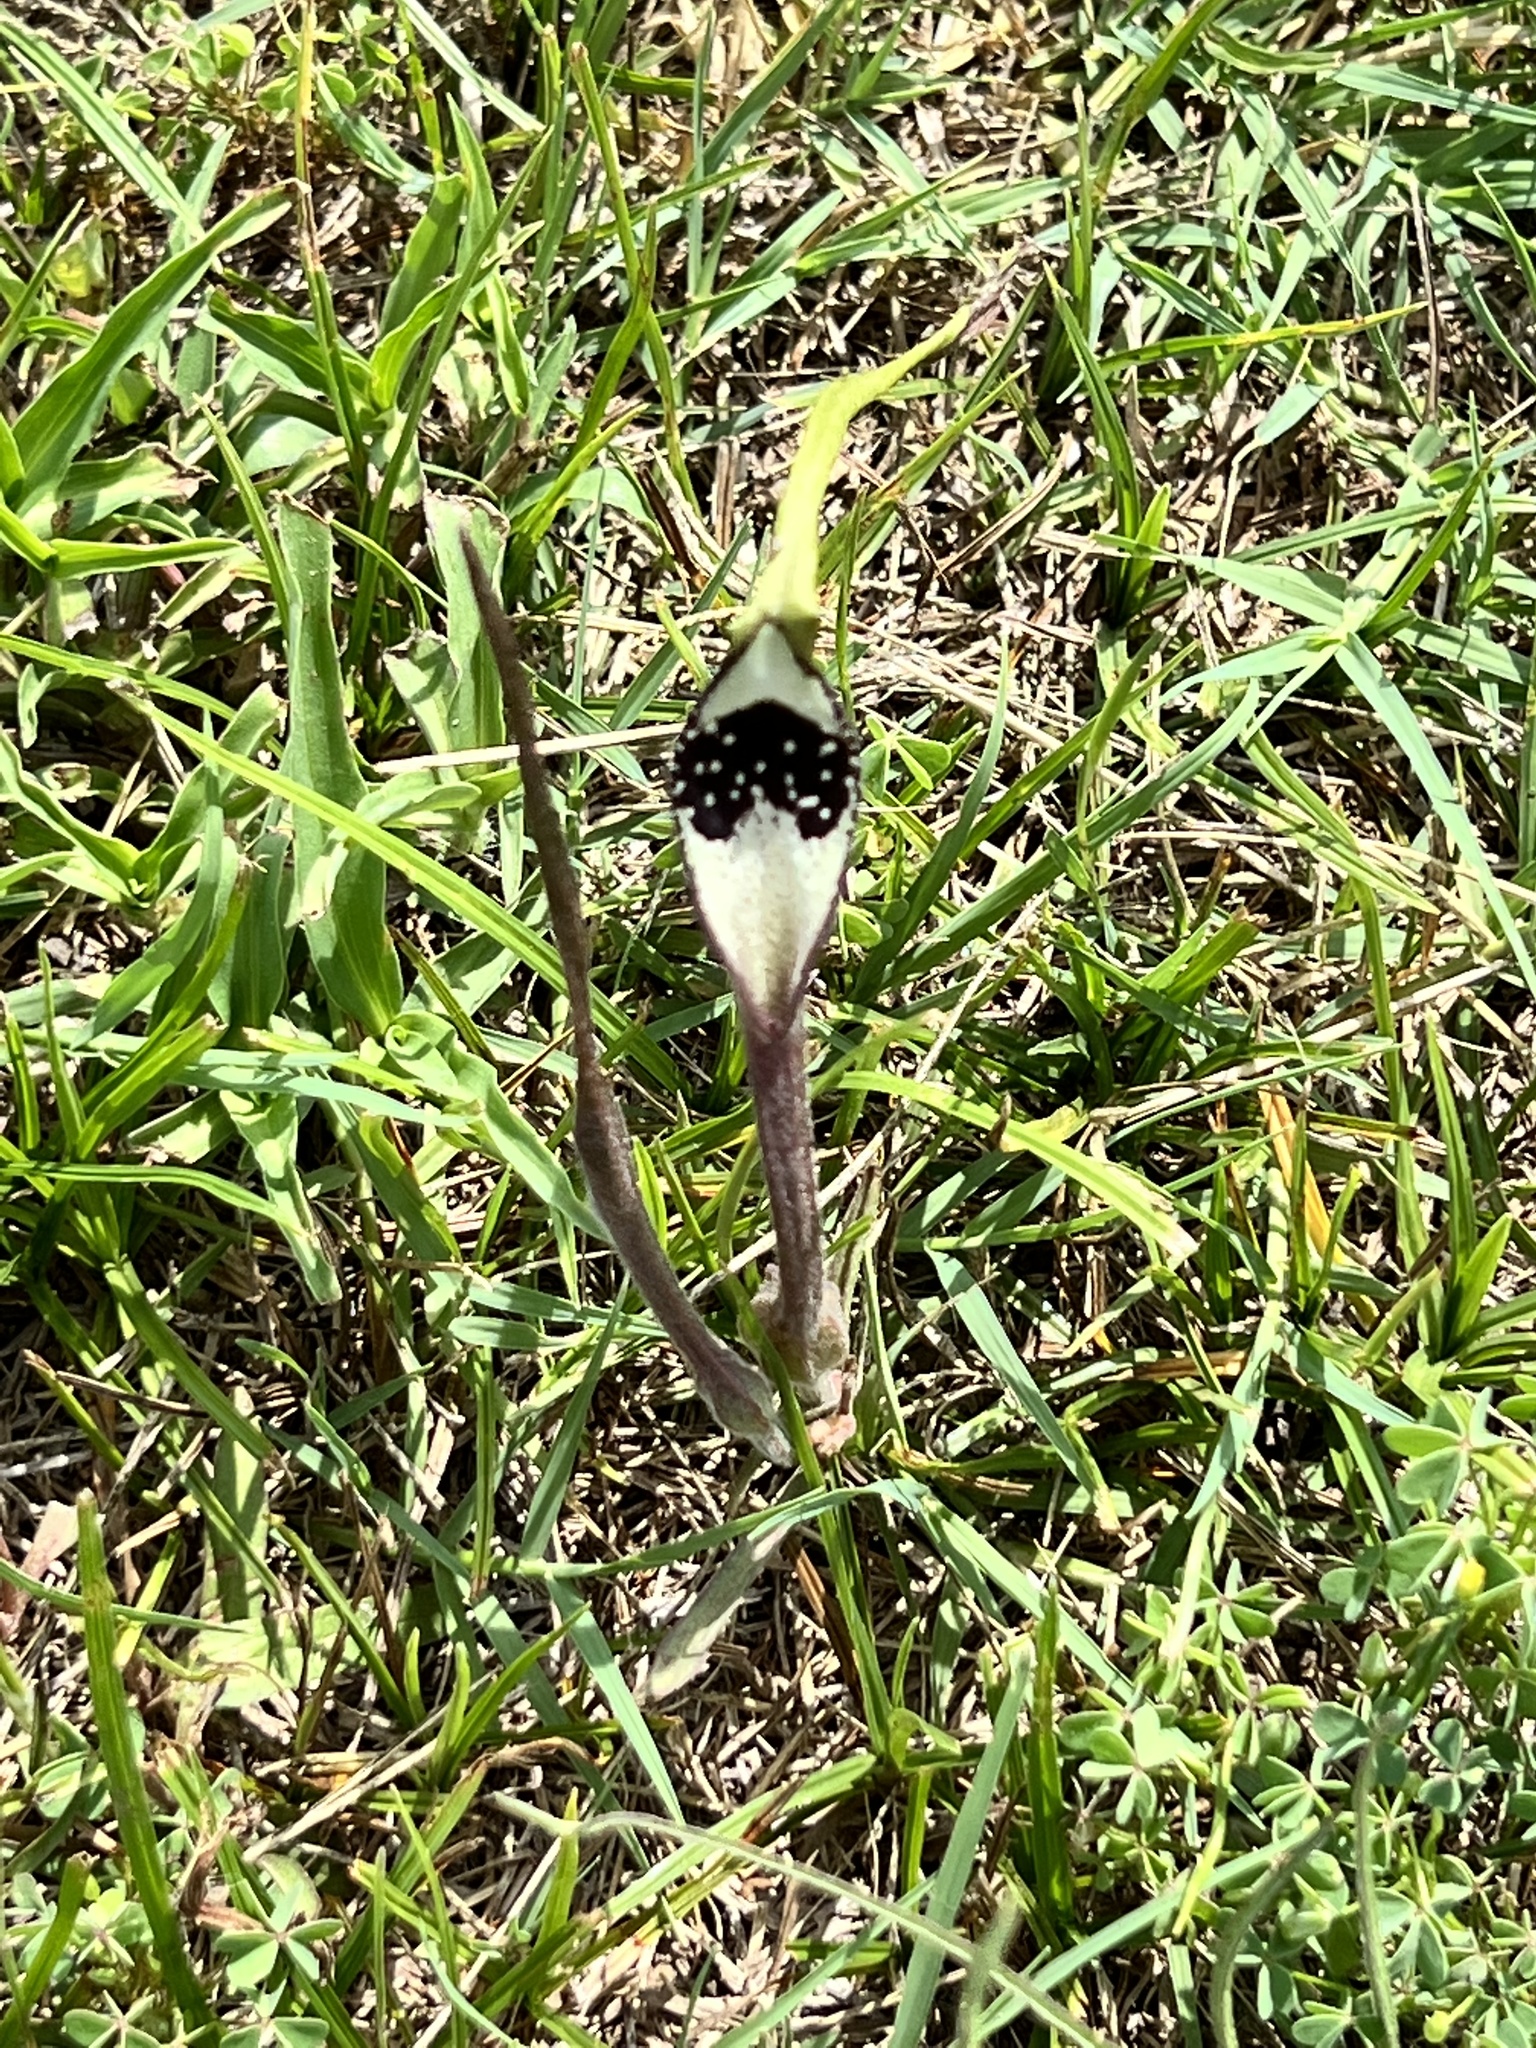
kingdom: Plantae
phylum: Tracheophyta
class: Magnoliopsida
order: Piperales
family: Aristolochiaceae
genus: Aristolochia
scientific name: Aristolochia erecta
